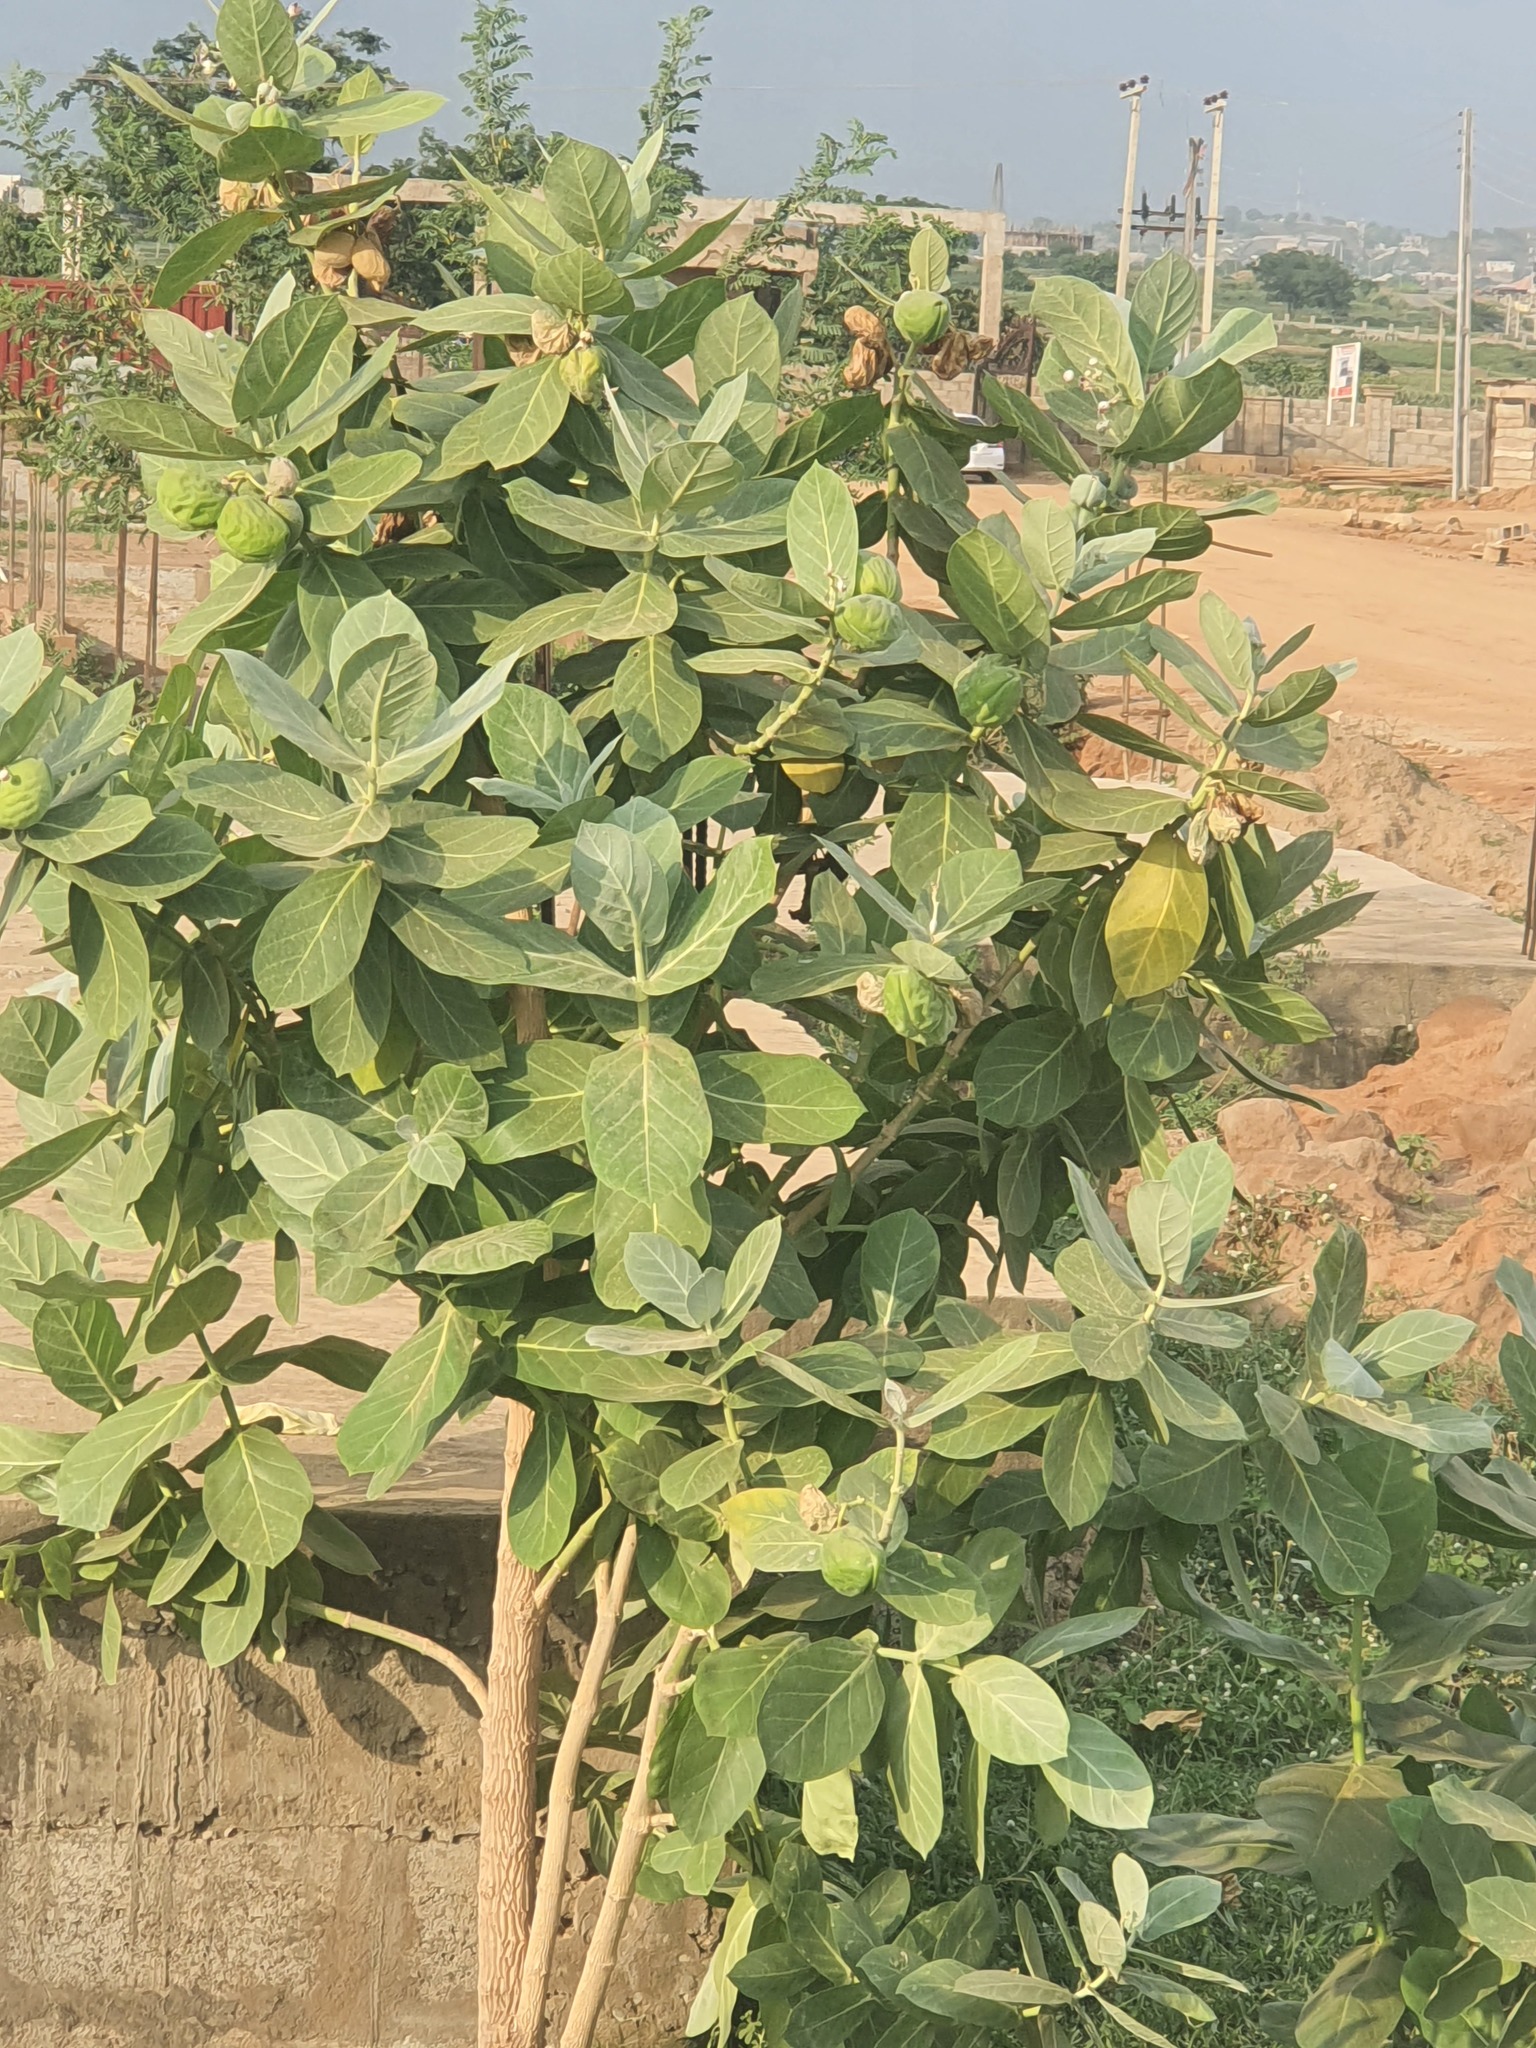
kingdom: Plantae
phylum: Tracheophyta
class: Magnoliopsida
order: Gentianales
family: Apocynaceae
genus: Calotropis
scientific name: Calotropis procera
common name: Roostertree
